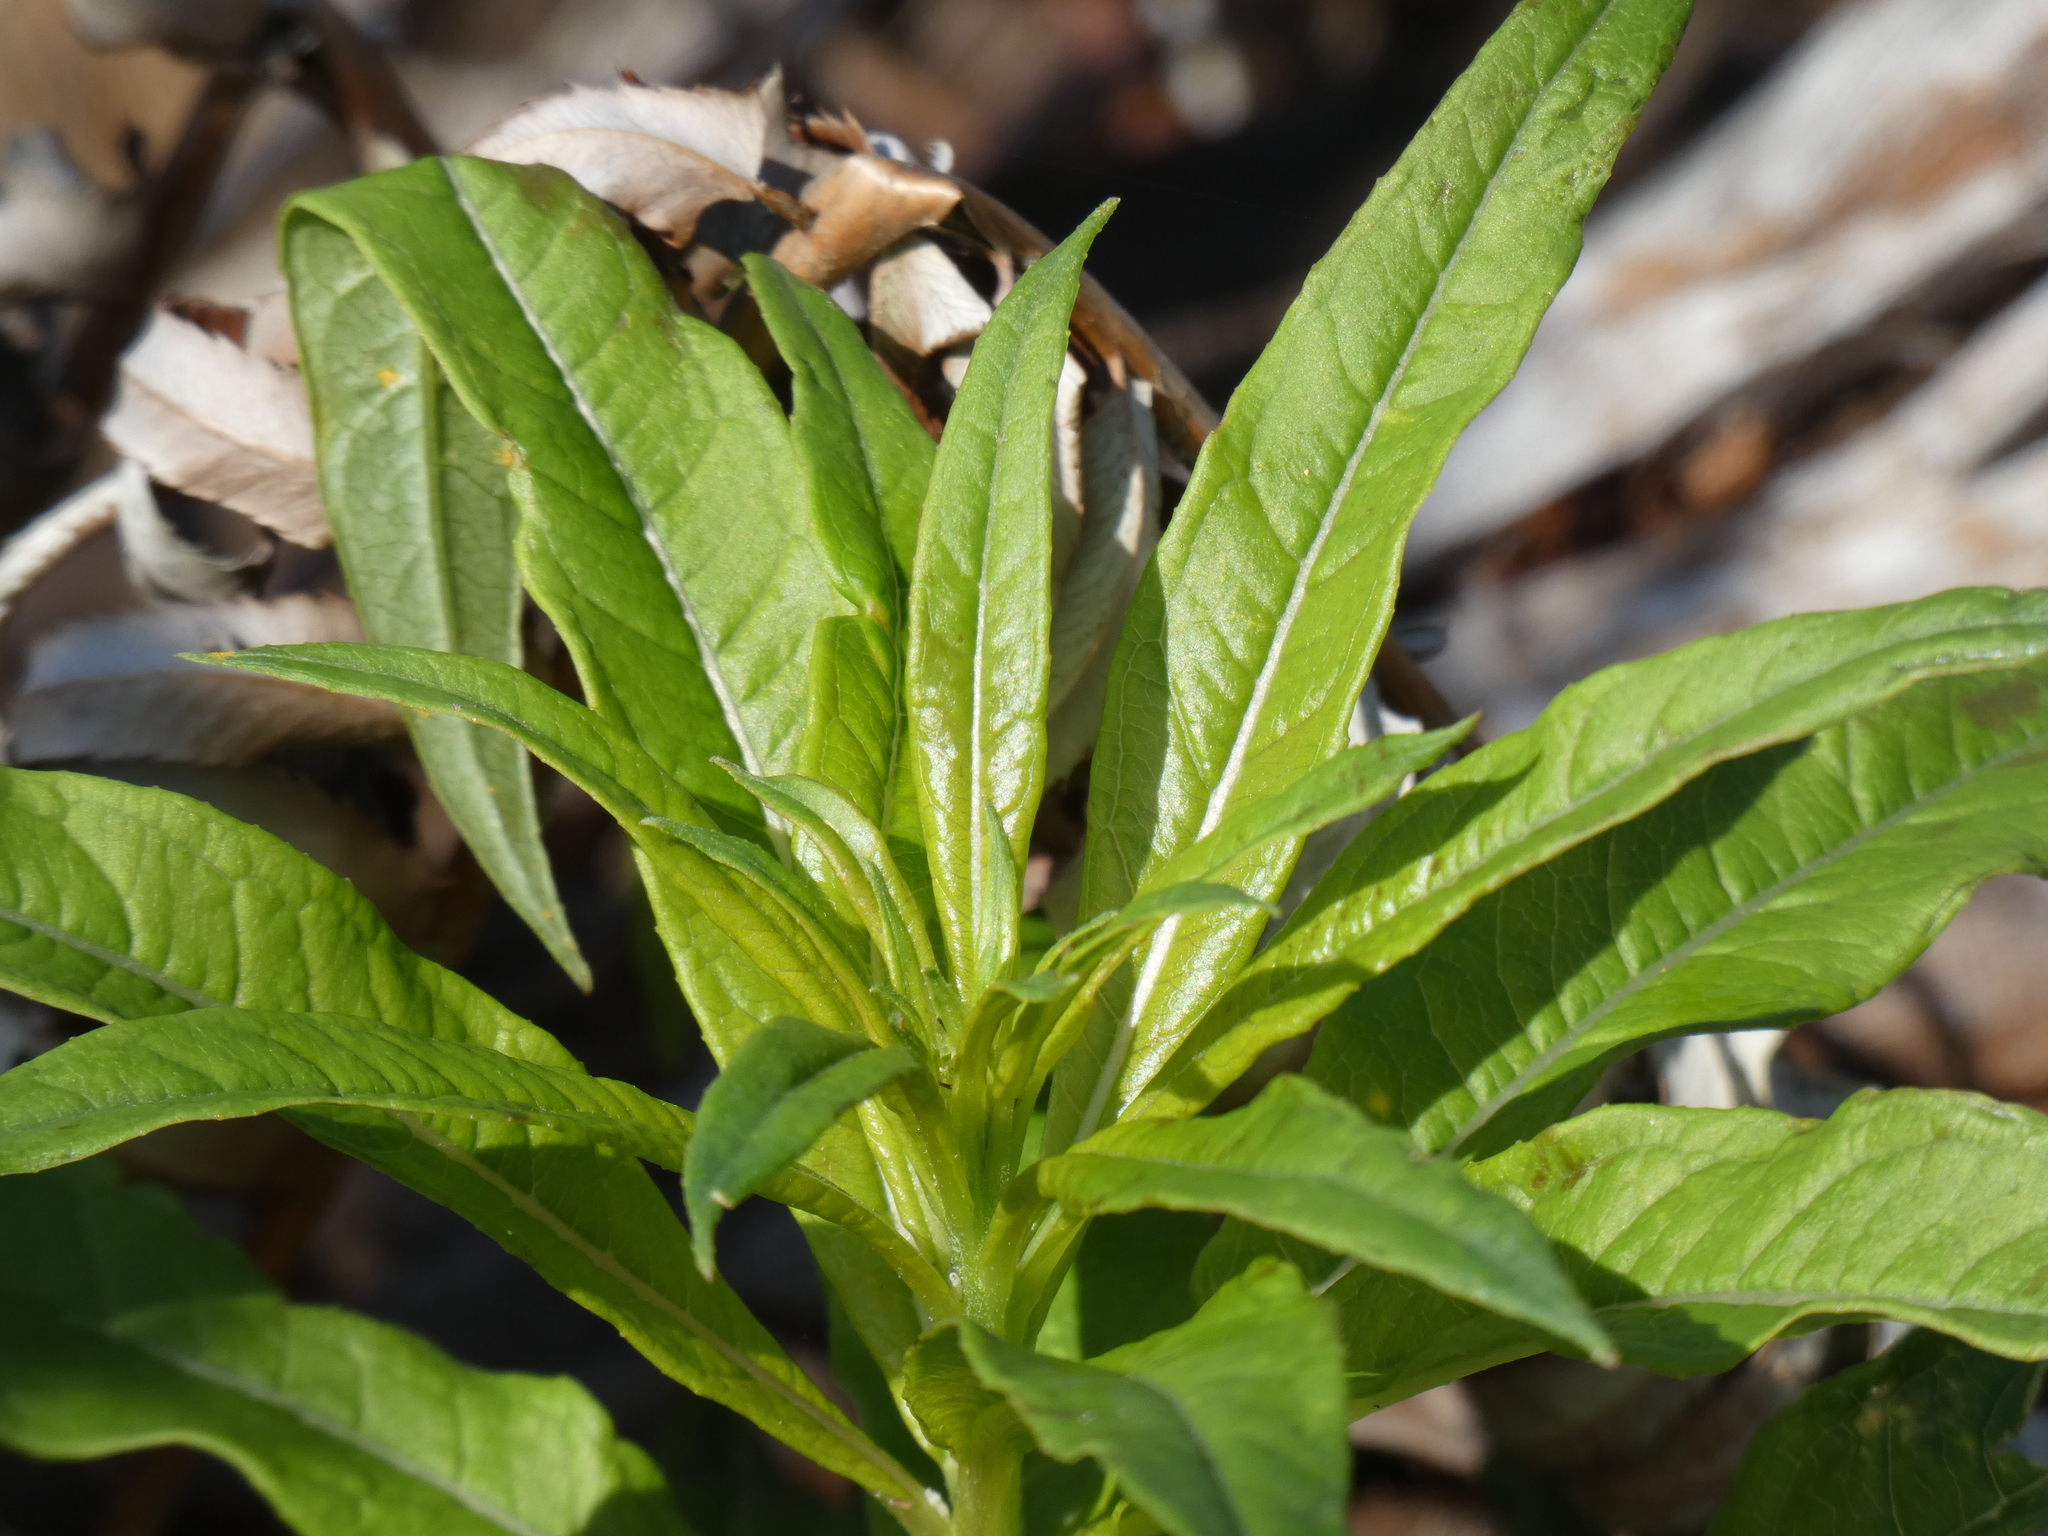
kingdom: Plantae
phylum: Tracheophyta
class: Magnoliopsida
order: Myrtales
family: Onagraceae
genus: Chamaenerion
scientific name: Chamaenerion angustifolium
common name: Fireweed
